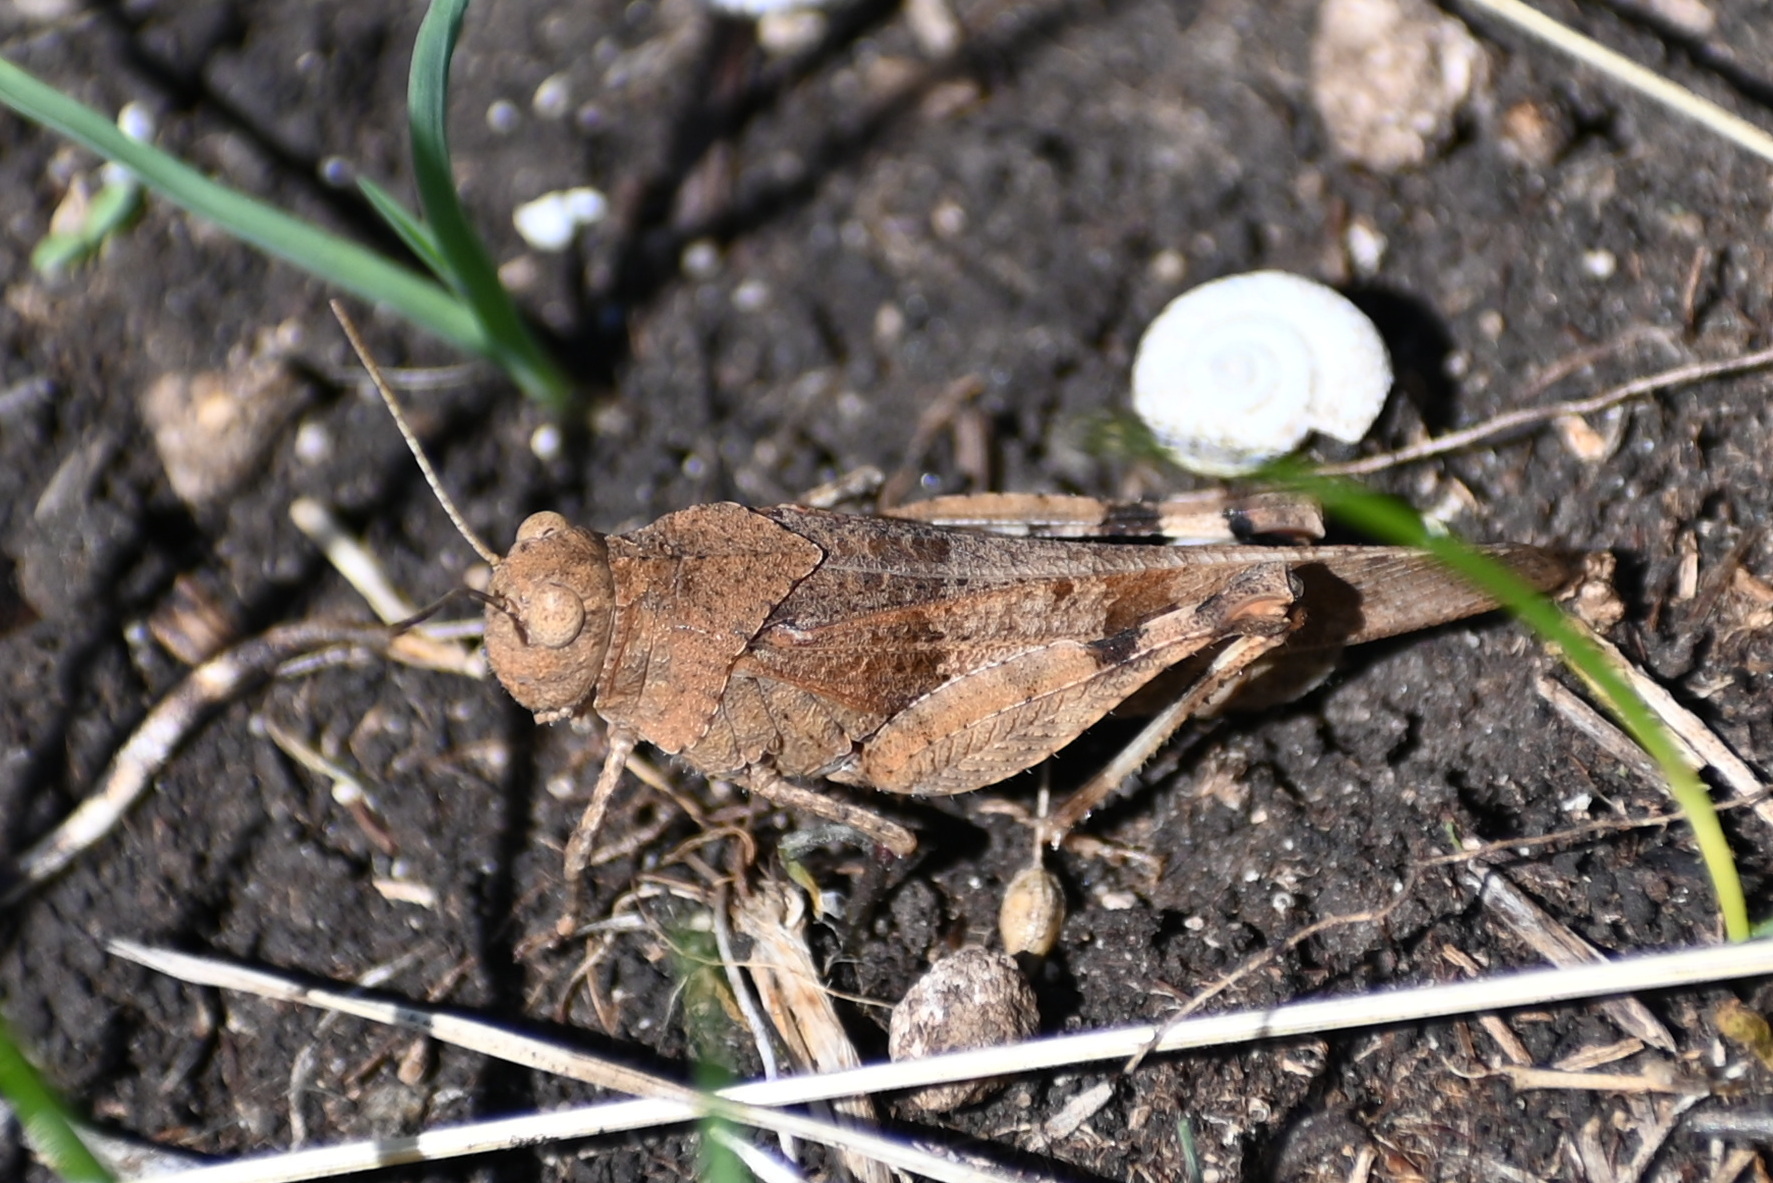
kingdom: Animalia
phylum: Arthropoda
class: Insecta
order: Orthoptera
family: Acrididae
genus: Oedipoda
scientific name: Oedipoda caerulescens
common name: Blue-winged grasshopper
